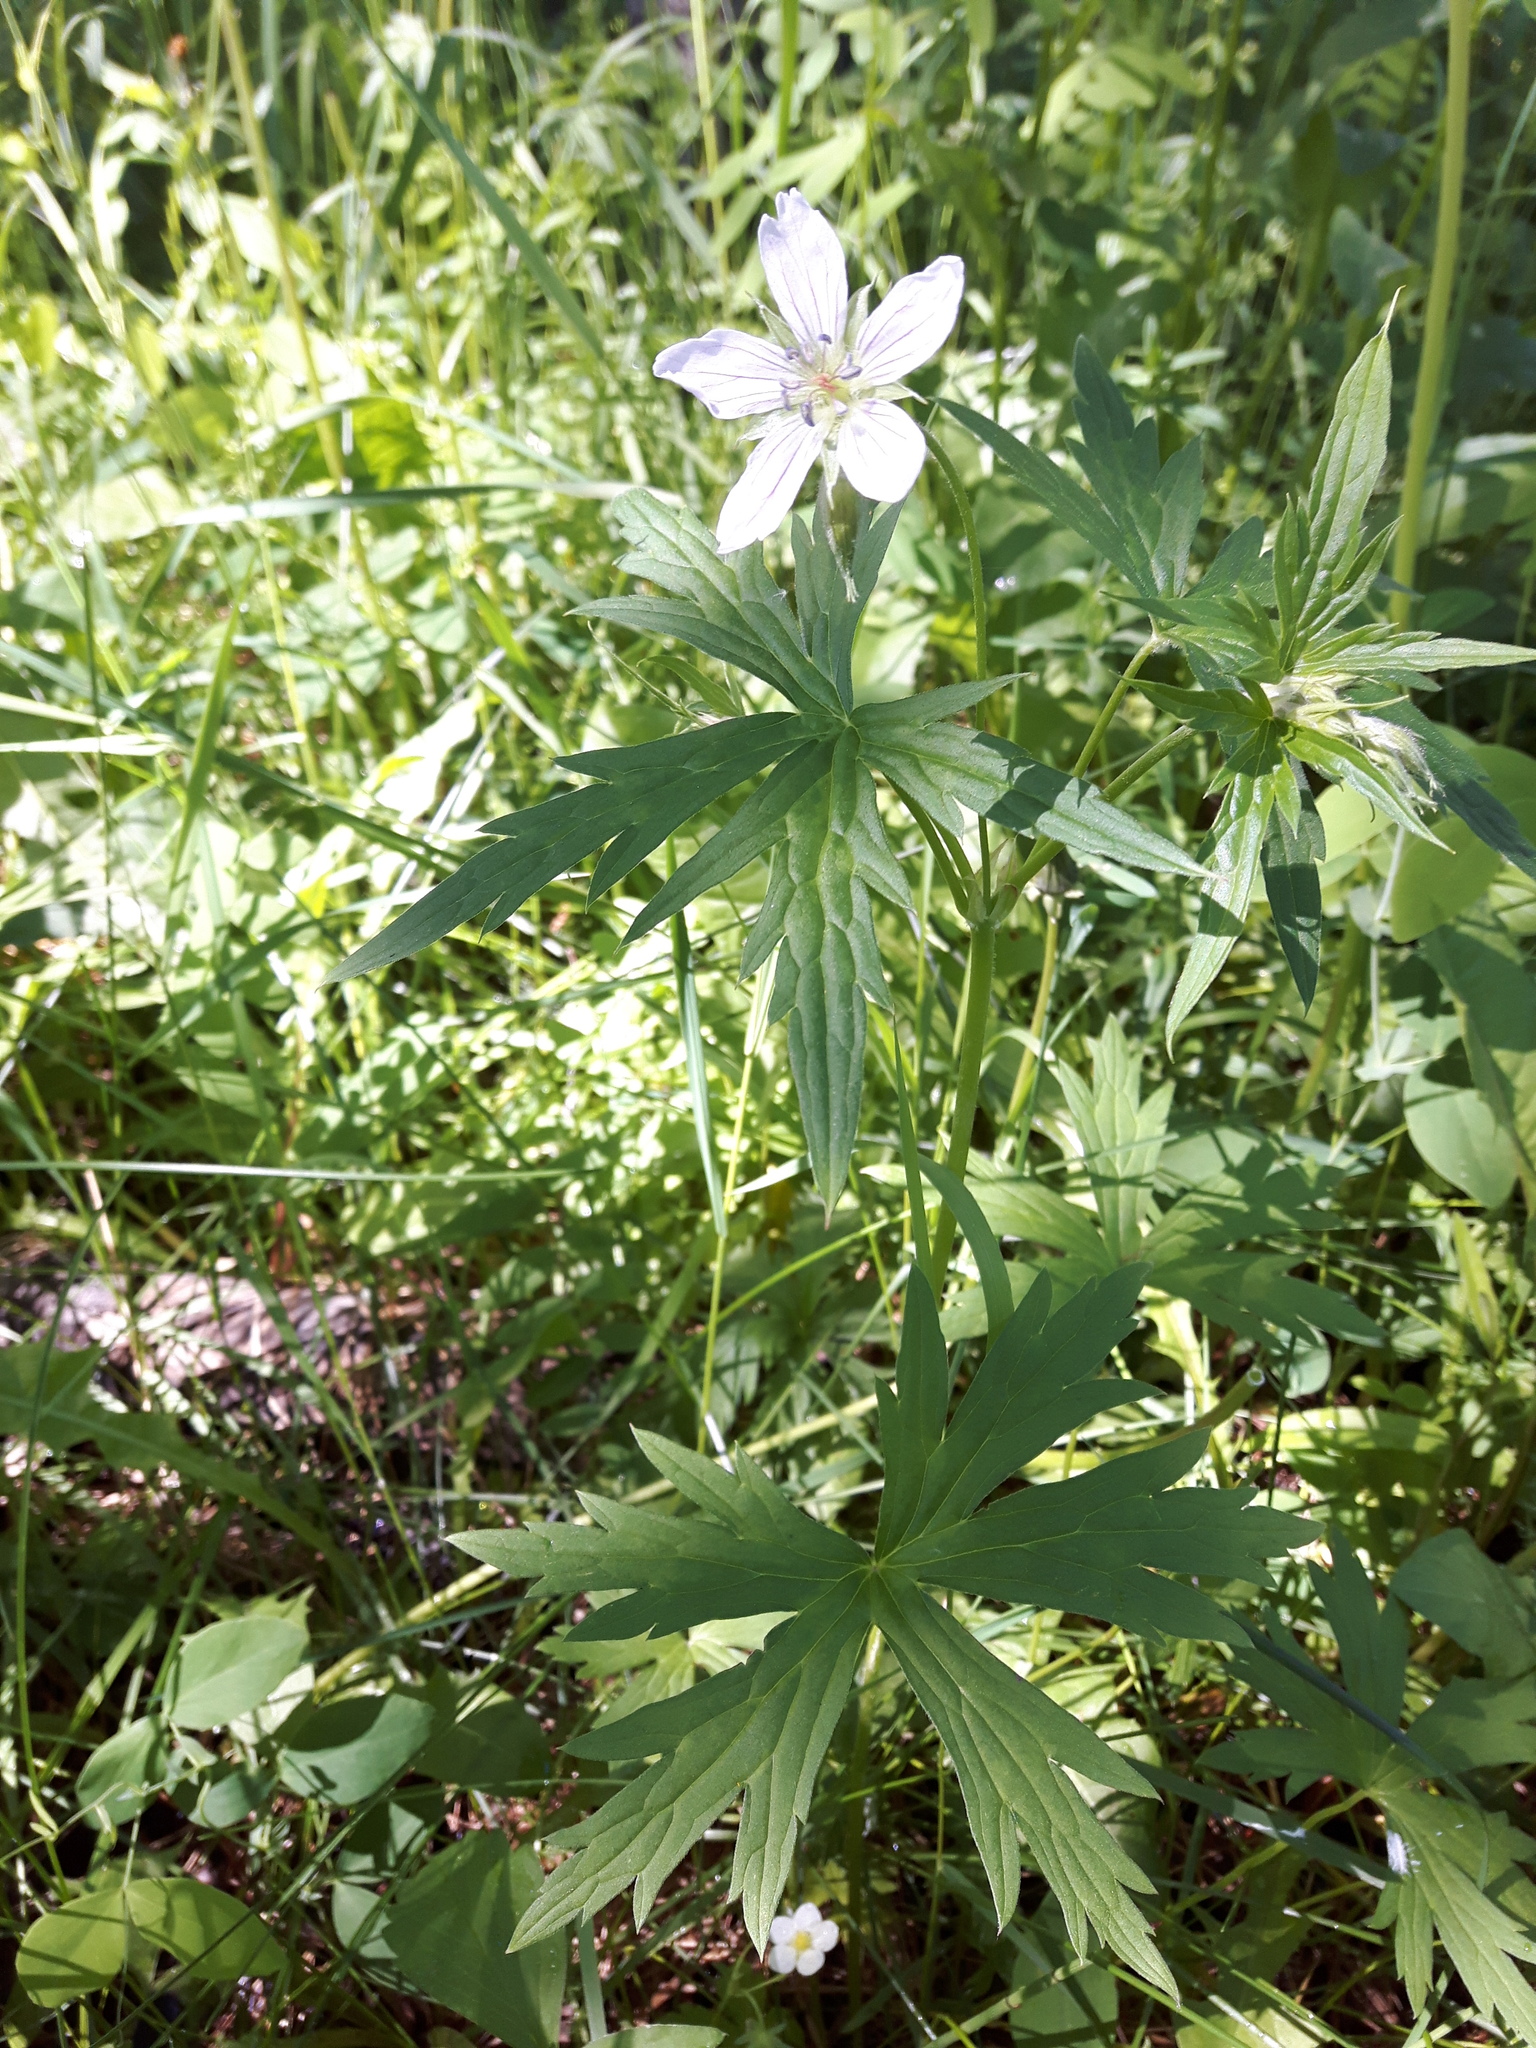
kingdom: Plantae
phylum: Tracheophyta
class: Magnoliopsida
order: Geraniales
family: Geraniaceae
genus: Geranium
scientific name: Geranium richardsonii
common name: Richardson's crane's-bill
